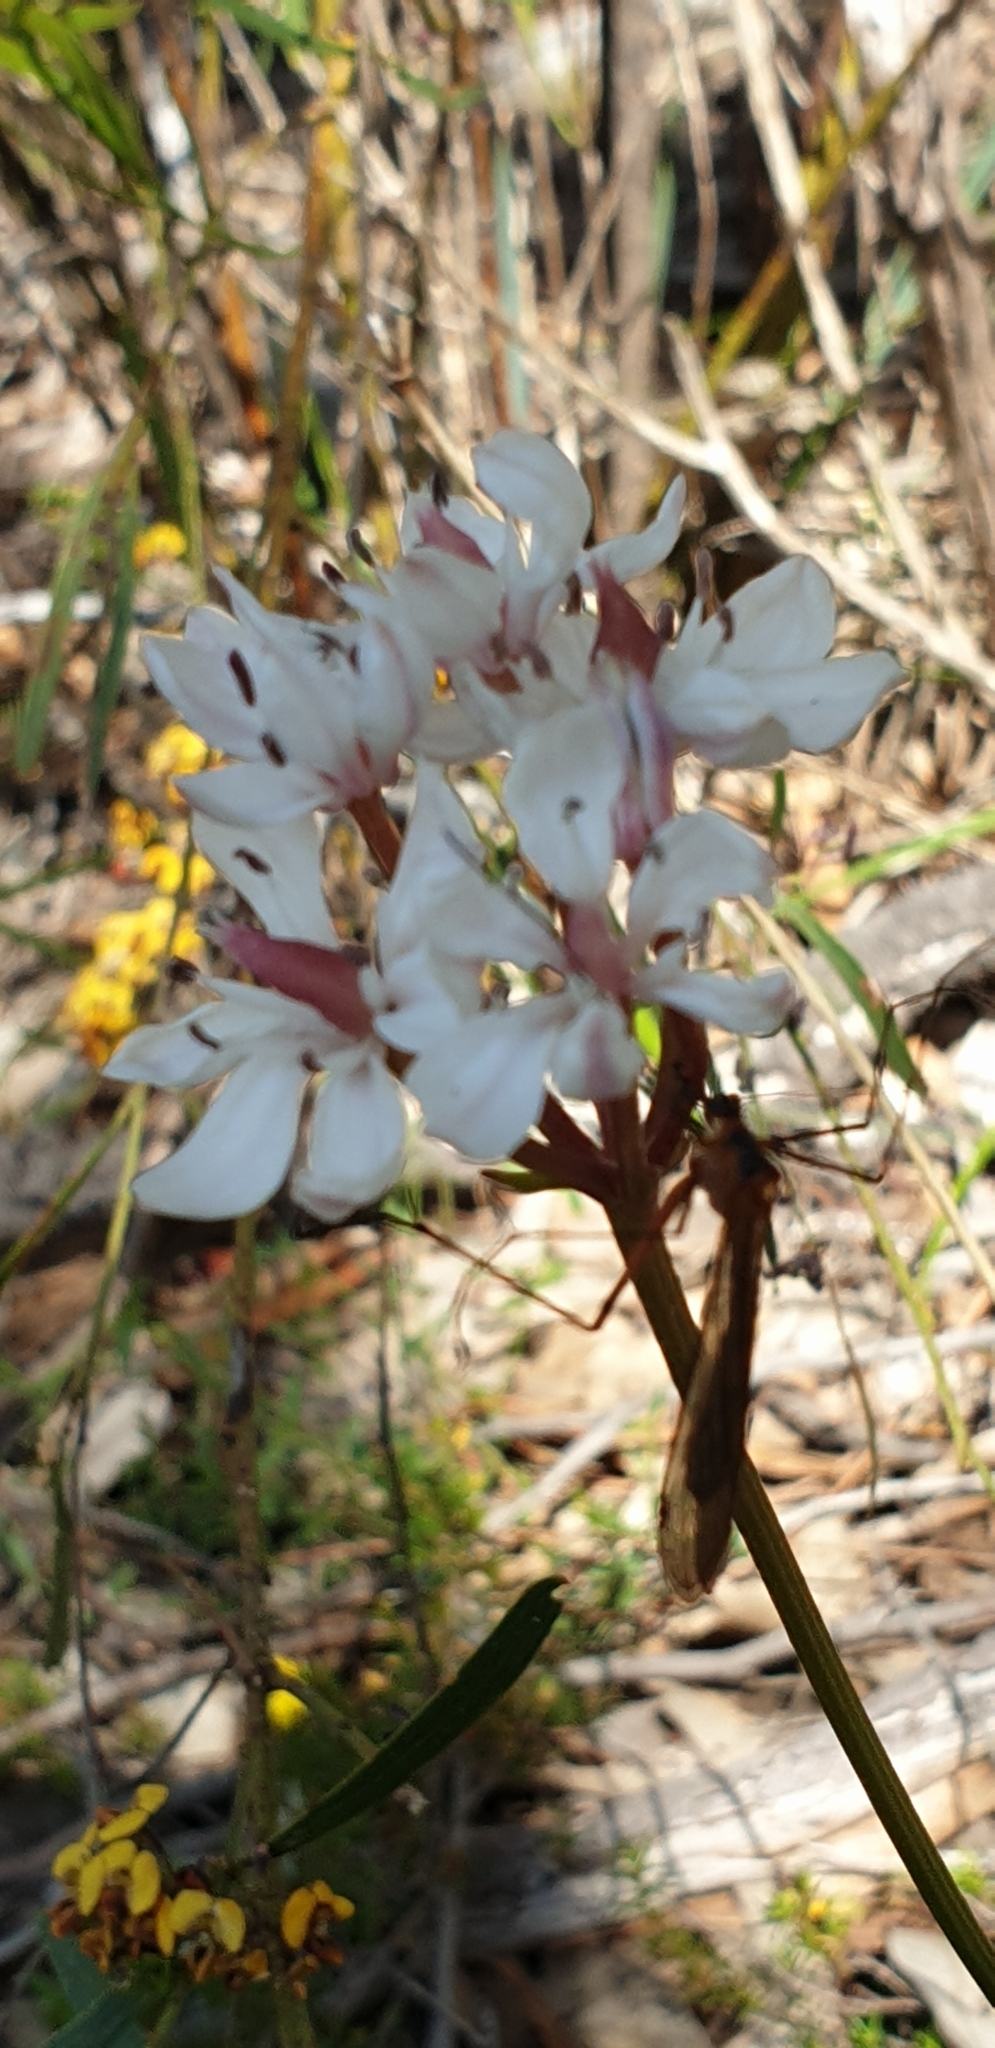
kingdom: Plantae
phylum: Tracheophyta
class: Liliopsida
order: Liliales
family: Colchicaceae
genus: Burchardia
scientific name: Burchardia umbellata
